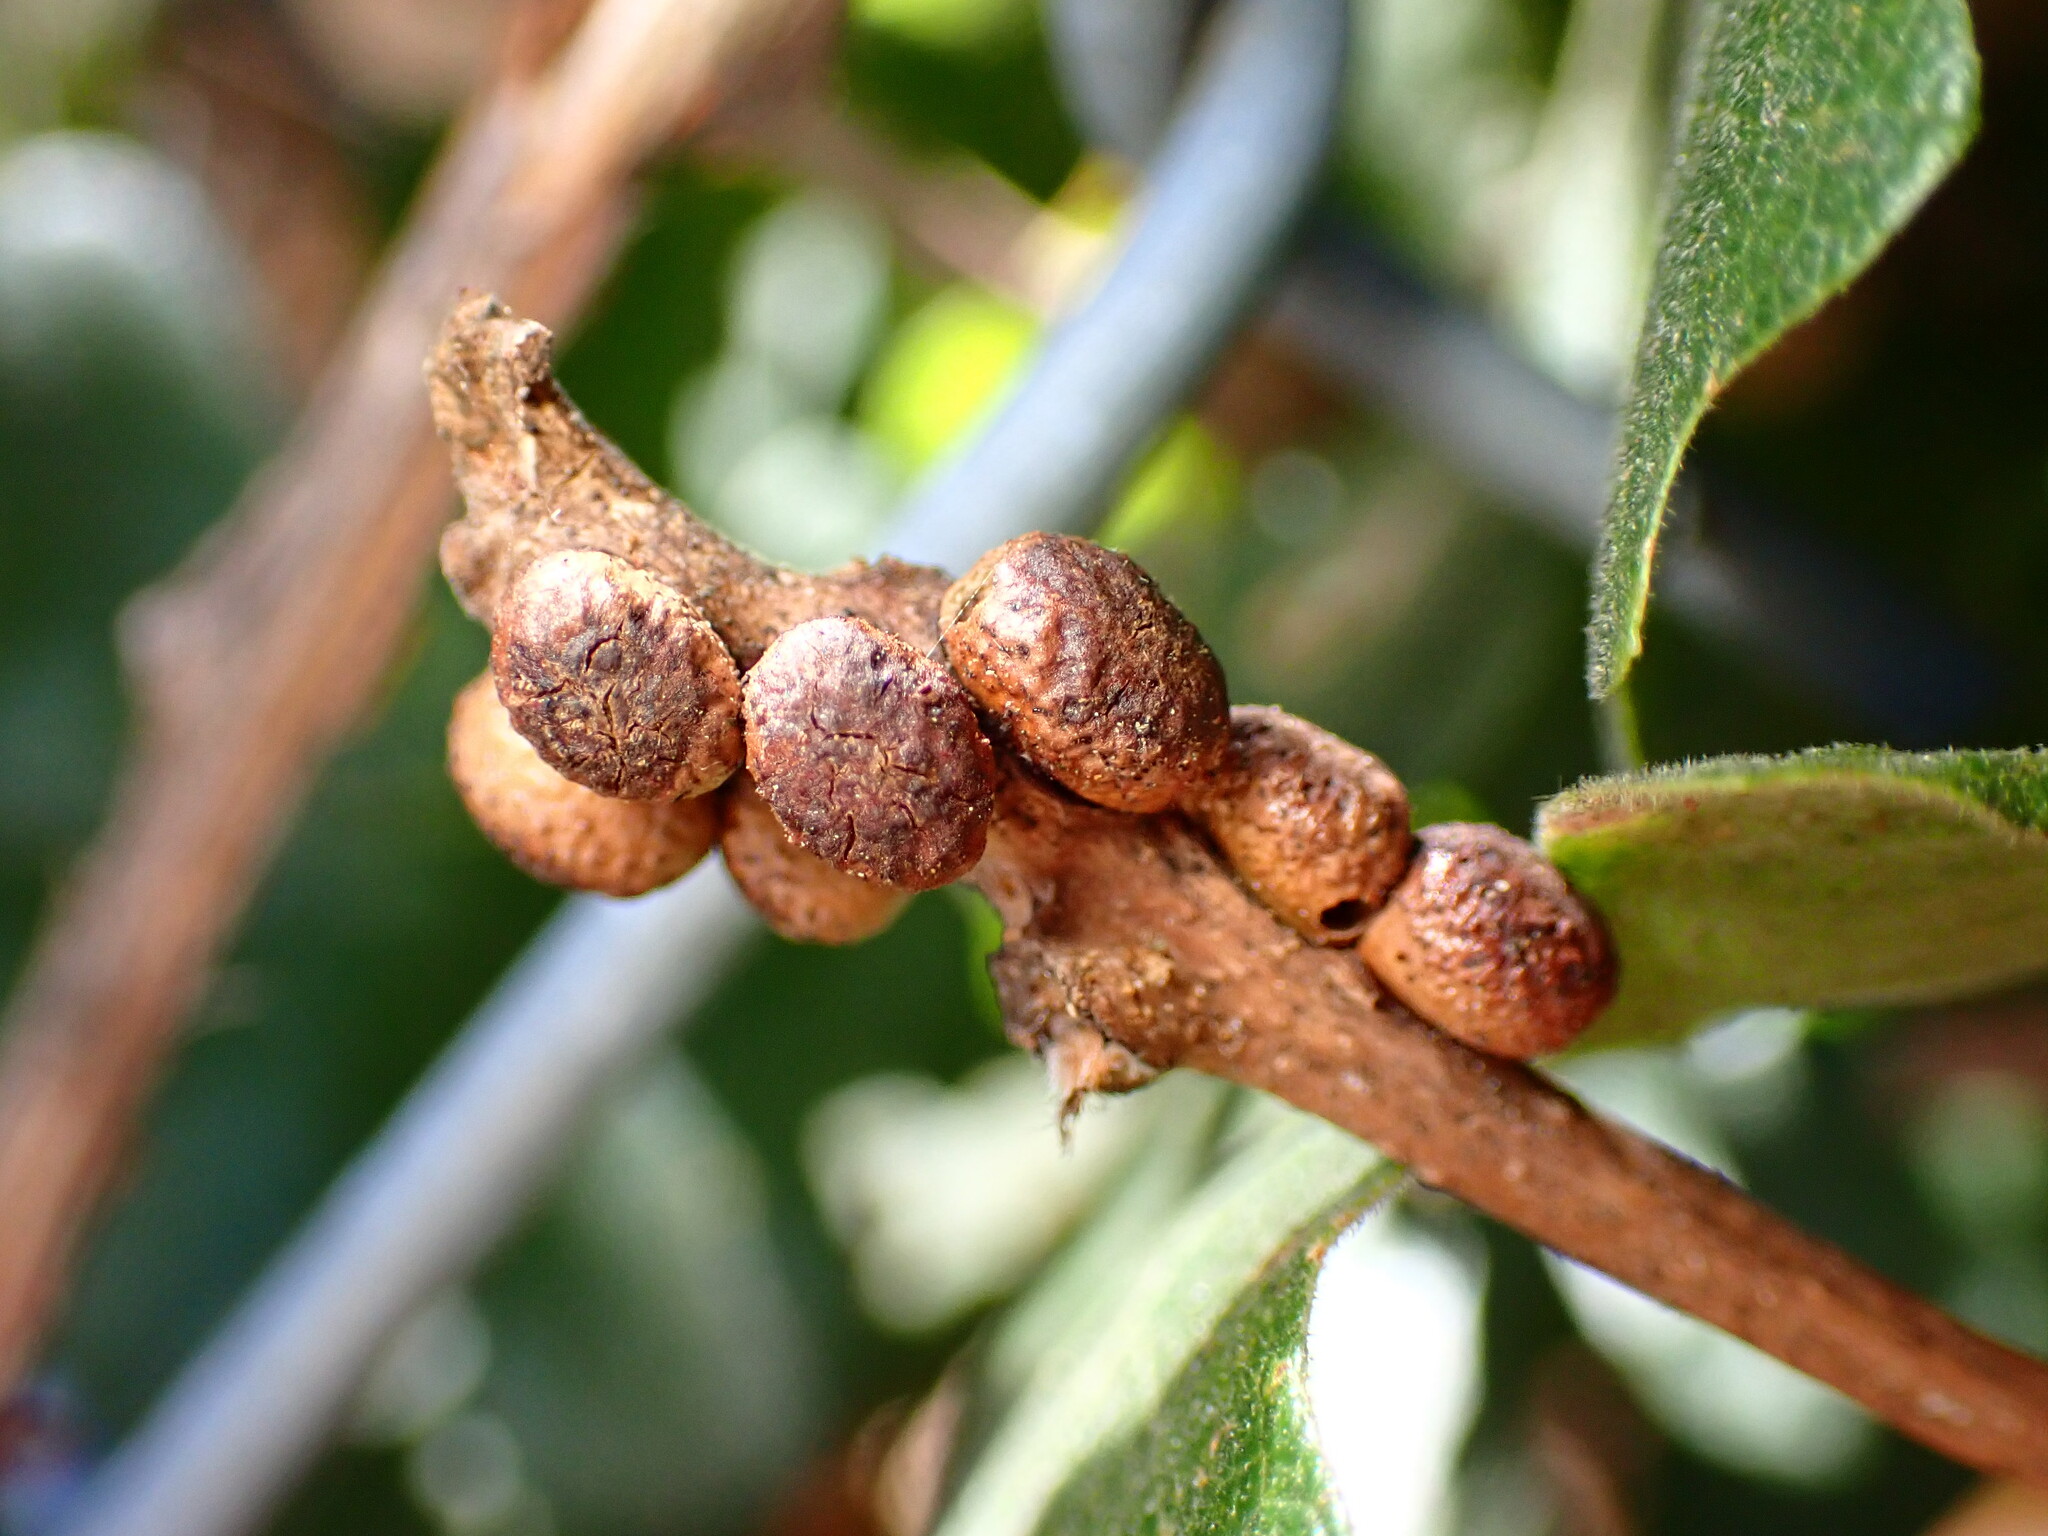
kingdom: Animalia
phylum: Arthropoda
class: Insecta
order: Hymenoptera
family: Cynipidae
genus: Disholcaspis
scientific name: Disholcaspis
